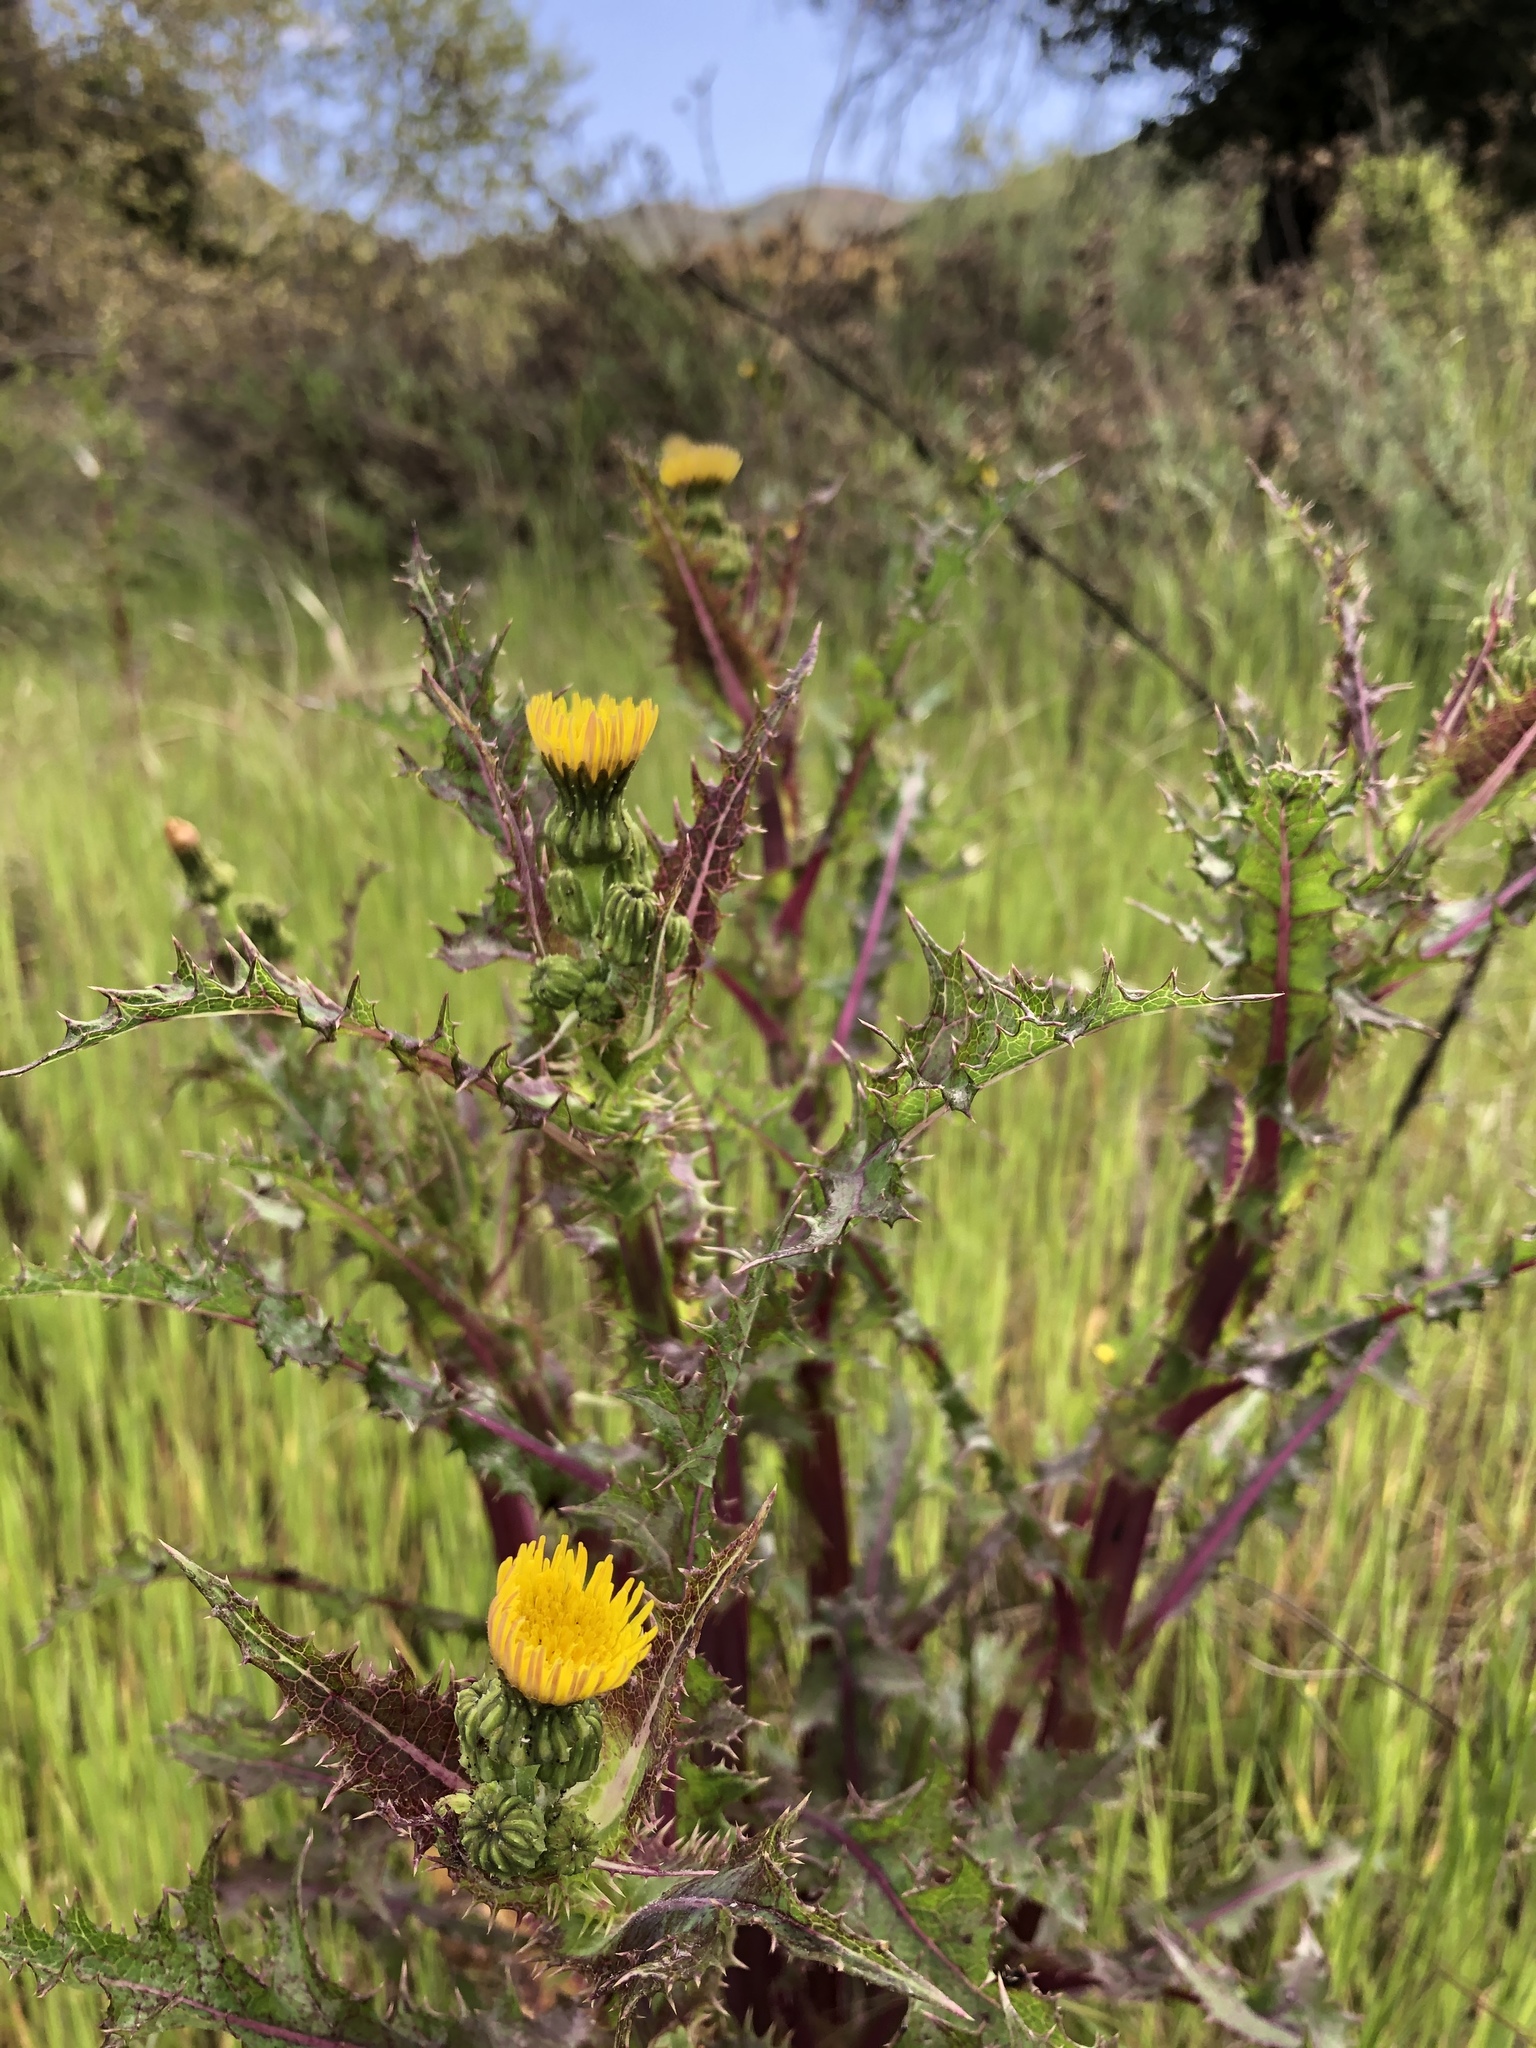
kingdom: Plantae
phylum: Tracheophyta
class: Magnoliopsida
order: Asterales
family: Asteraceae
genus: Sonchus
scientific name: Sonchus asper
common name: Prickly sow-thistle
